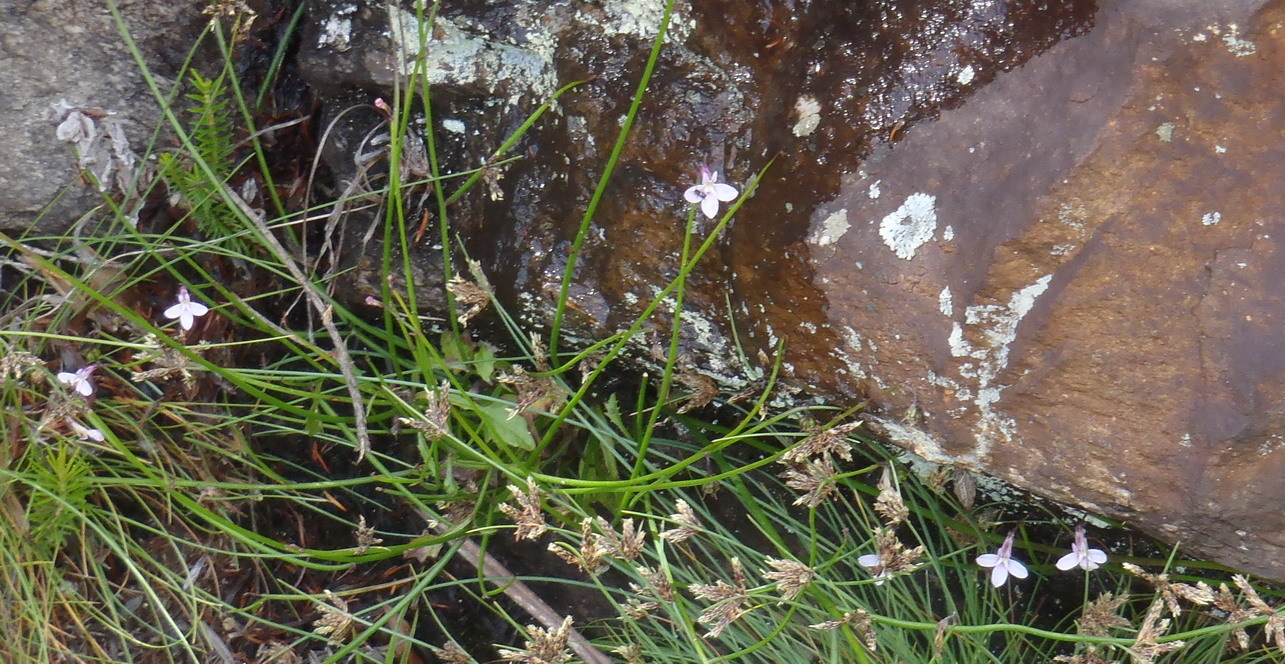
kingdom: Plantae
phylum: Tracheophyta
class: Magnoliopsida
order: Asterales
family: Campanulaceae
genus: Lobelia
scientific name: Lobelia patula
